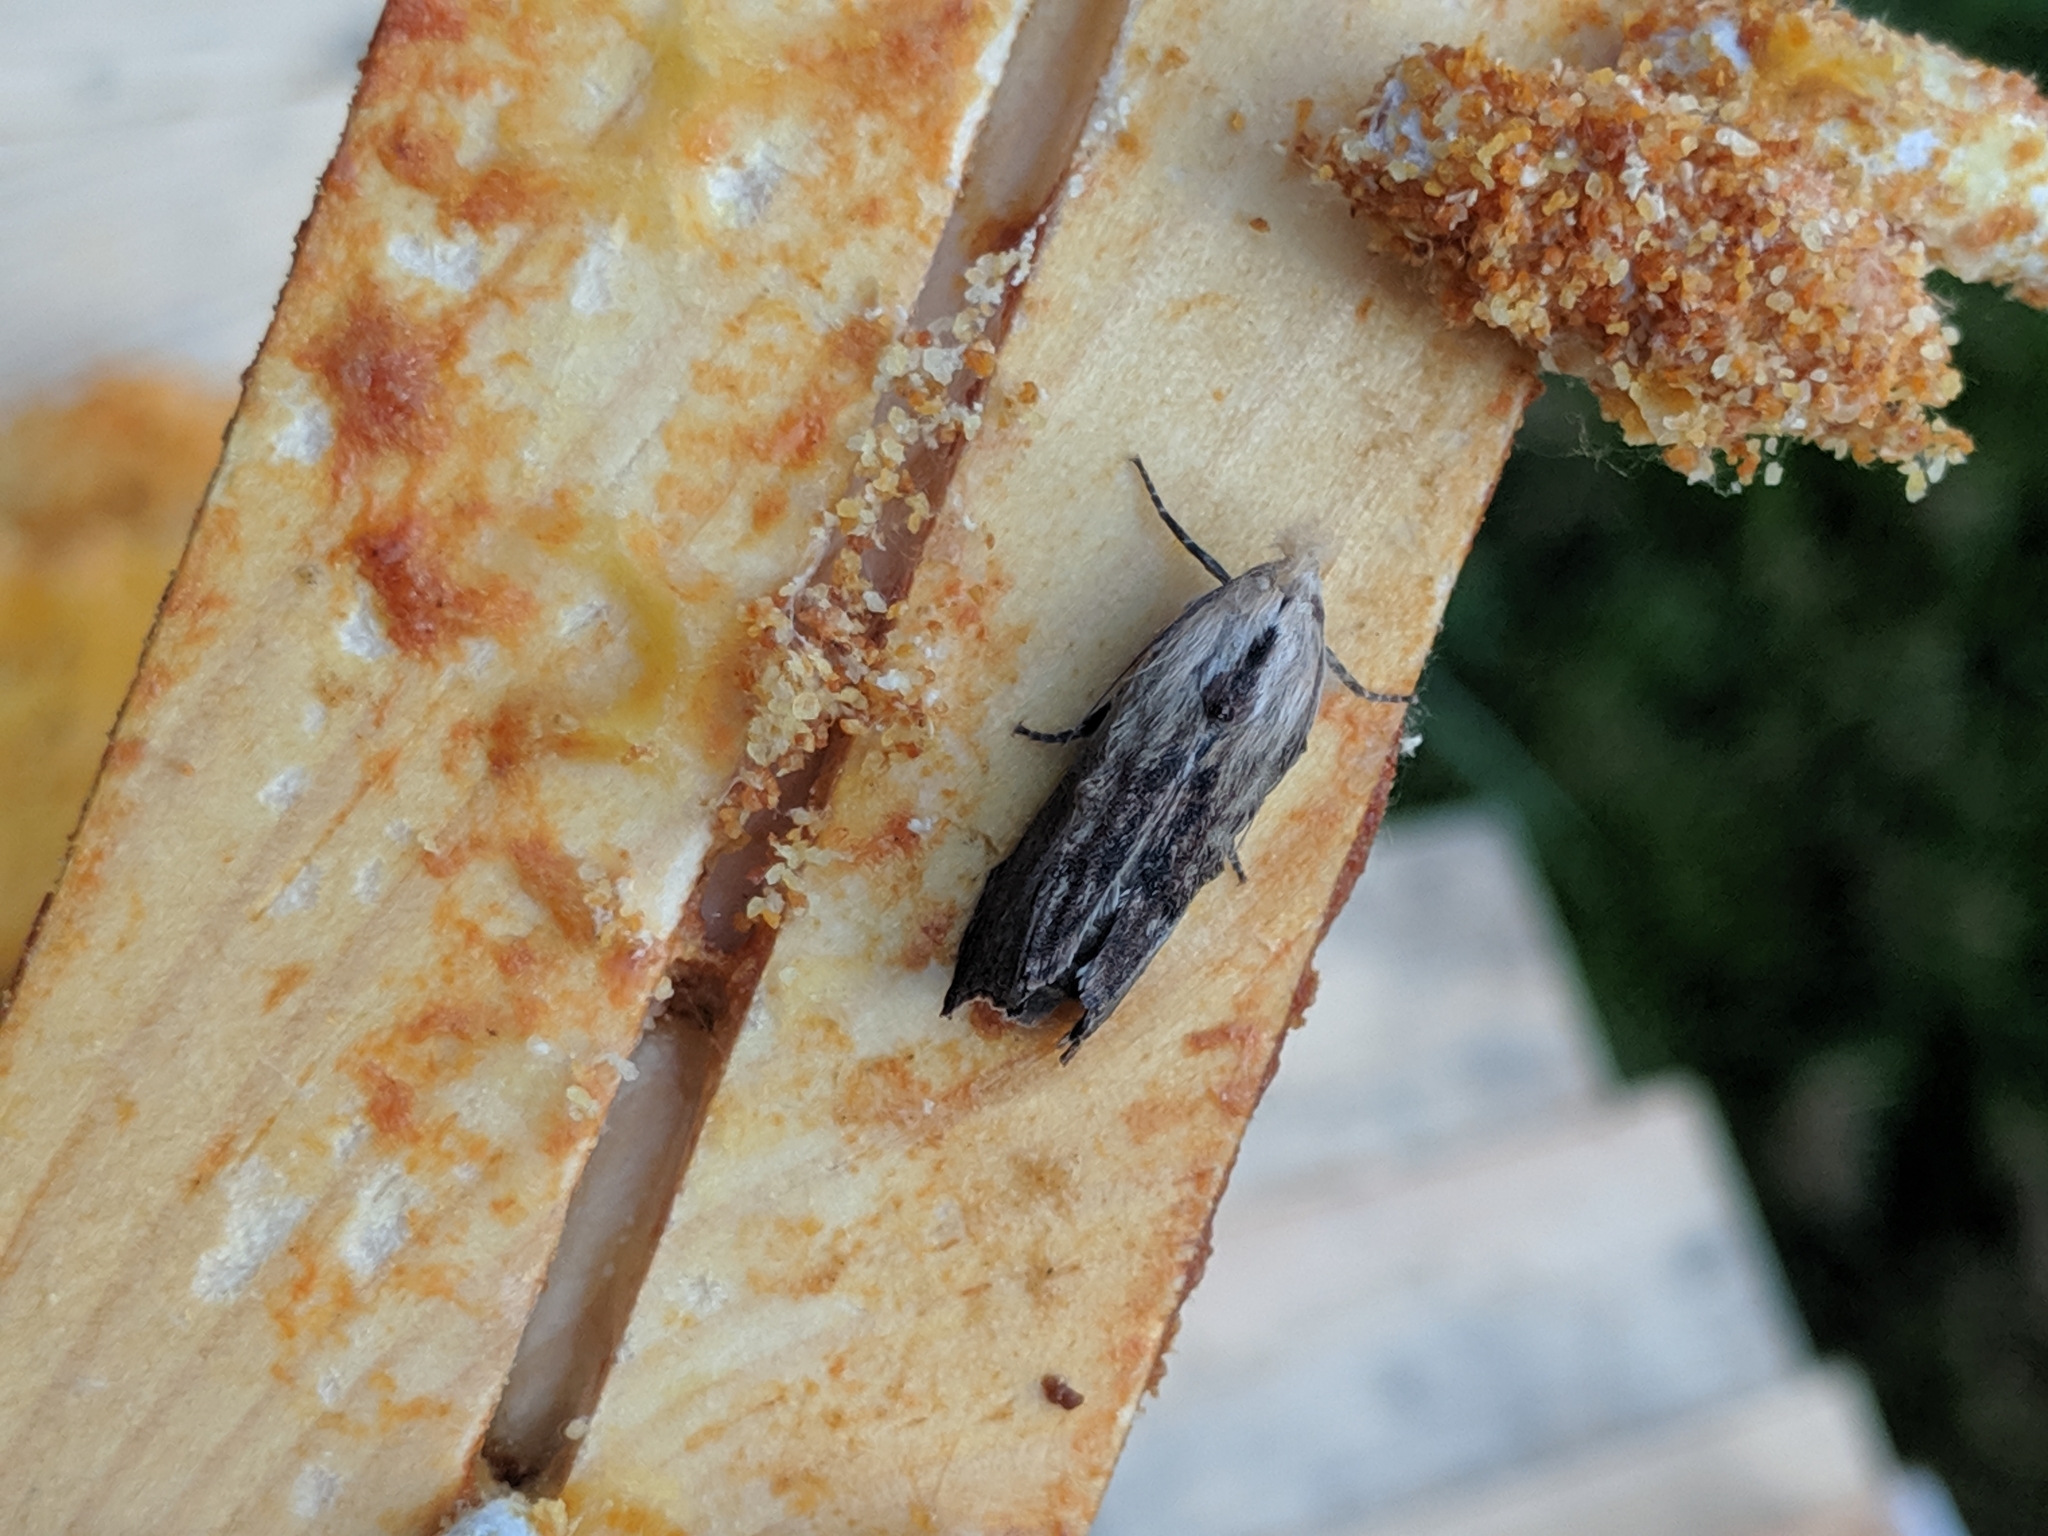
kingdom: Animalia
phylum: Arthropoda
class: Insecta
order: Lepidoptera
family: Pyralidae
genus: Galleria
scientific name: Galleria mellonella
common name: Greater wax moth
